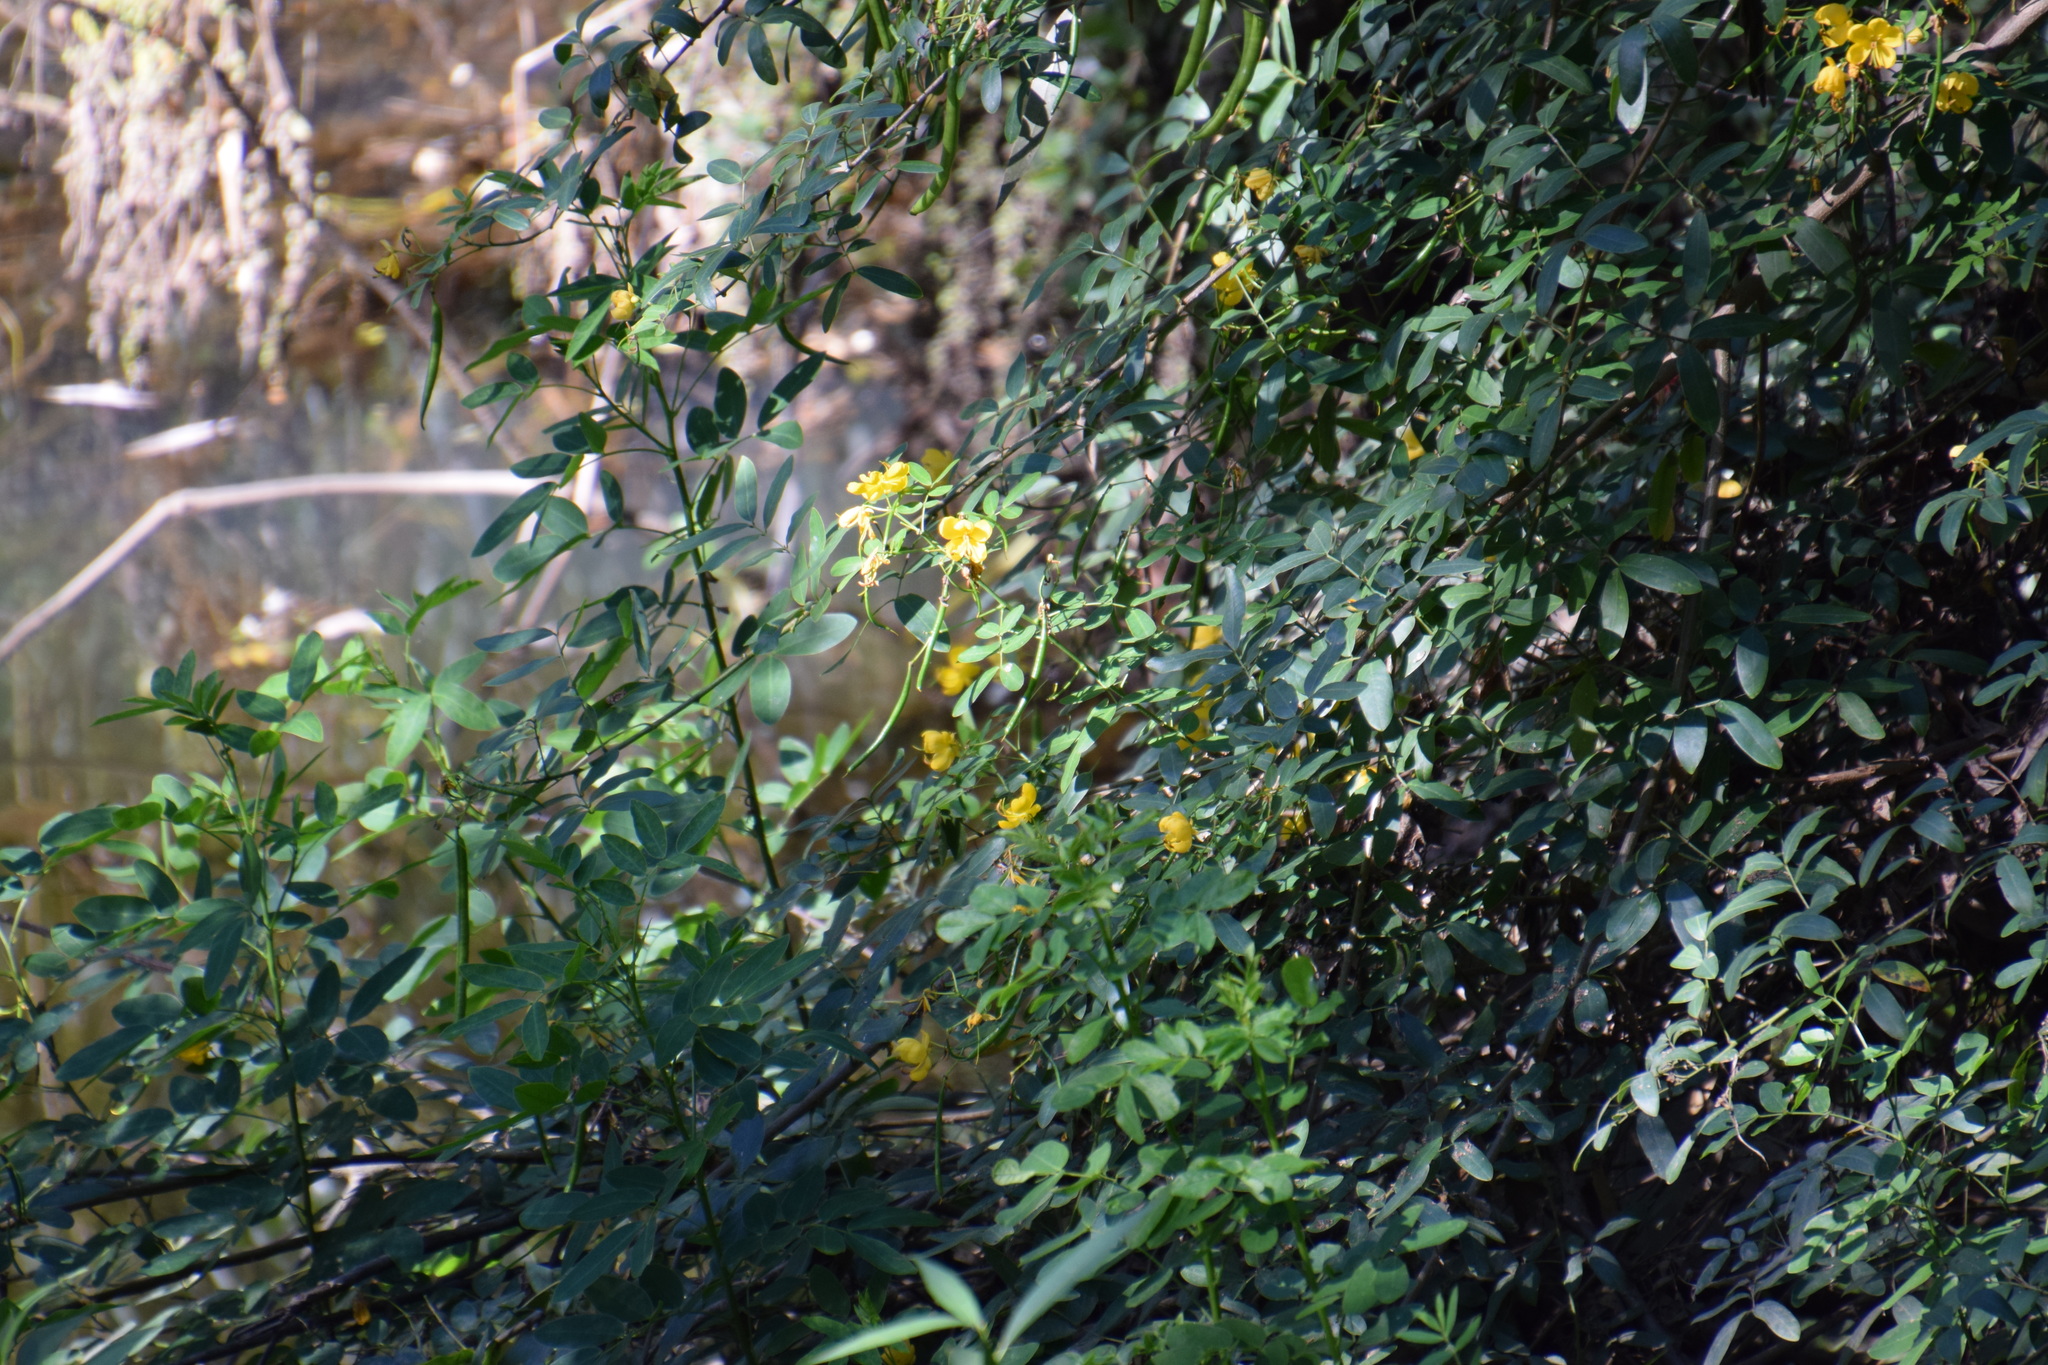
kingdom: Plantae
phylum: Tracheophyta
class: Magnoliopsida
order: Fabales
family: Fabaceae
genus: Senna
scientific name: Senna pendula
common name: Easter cassia
